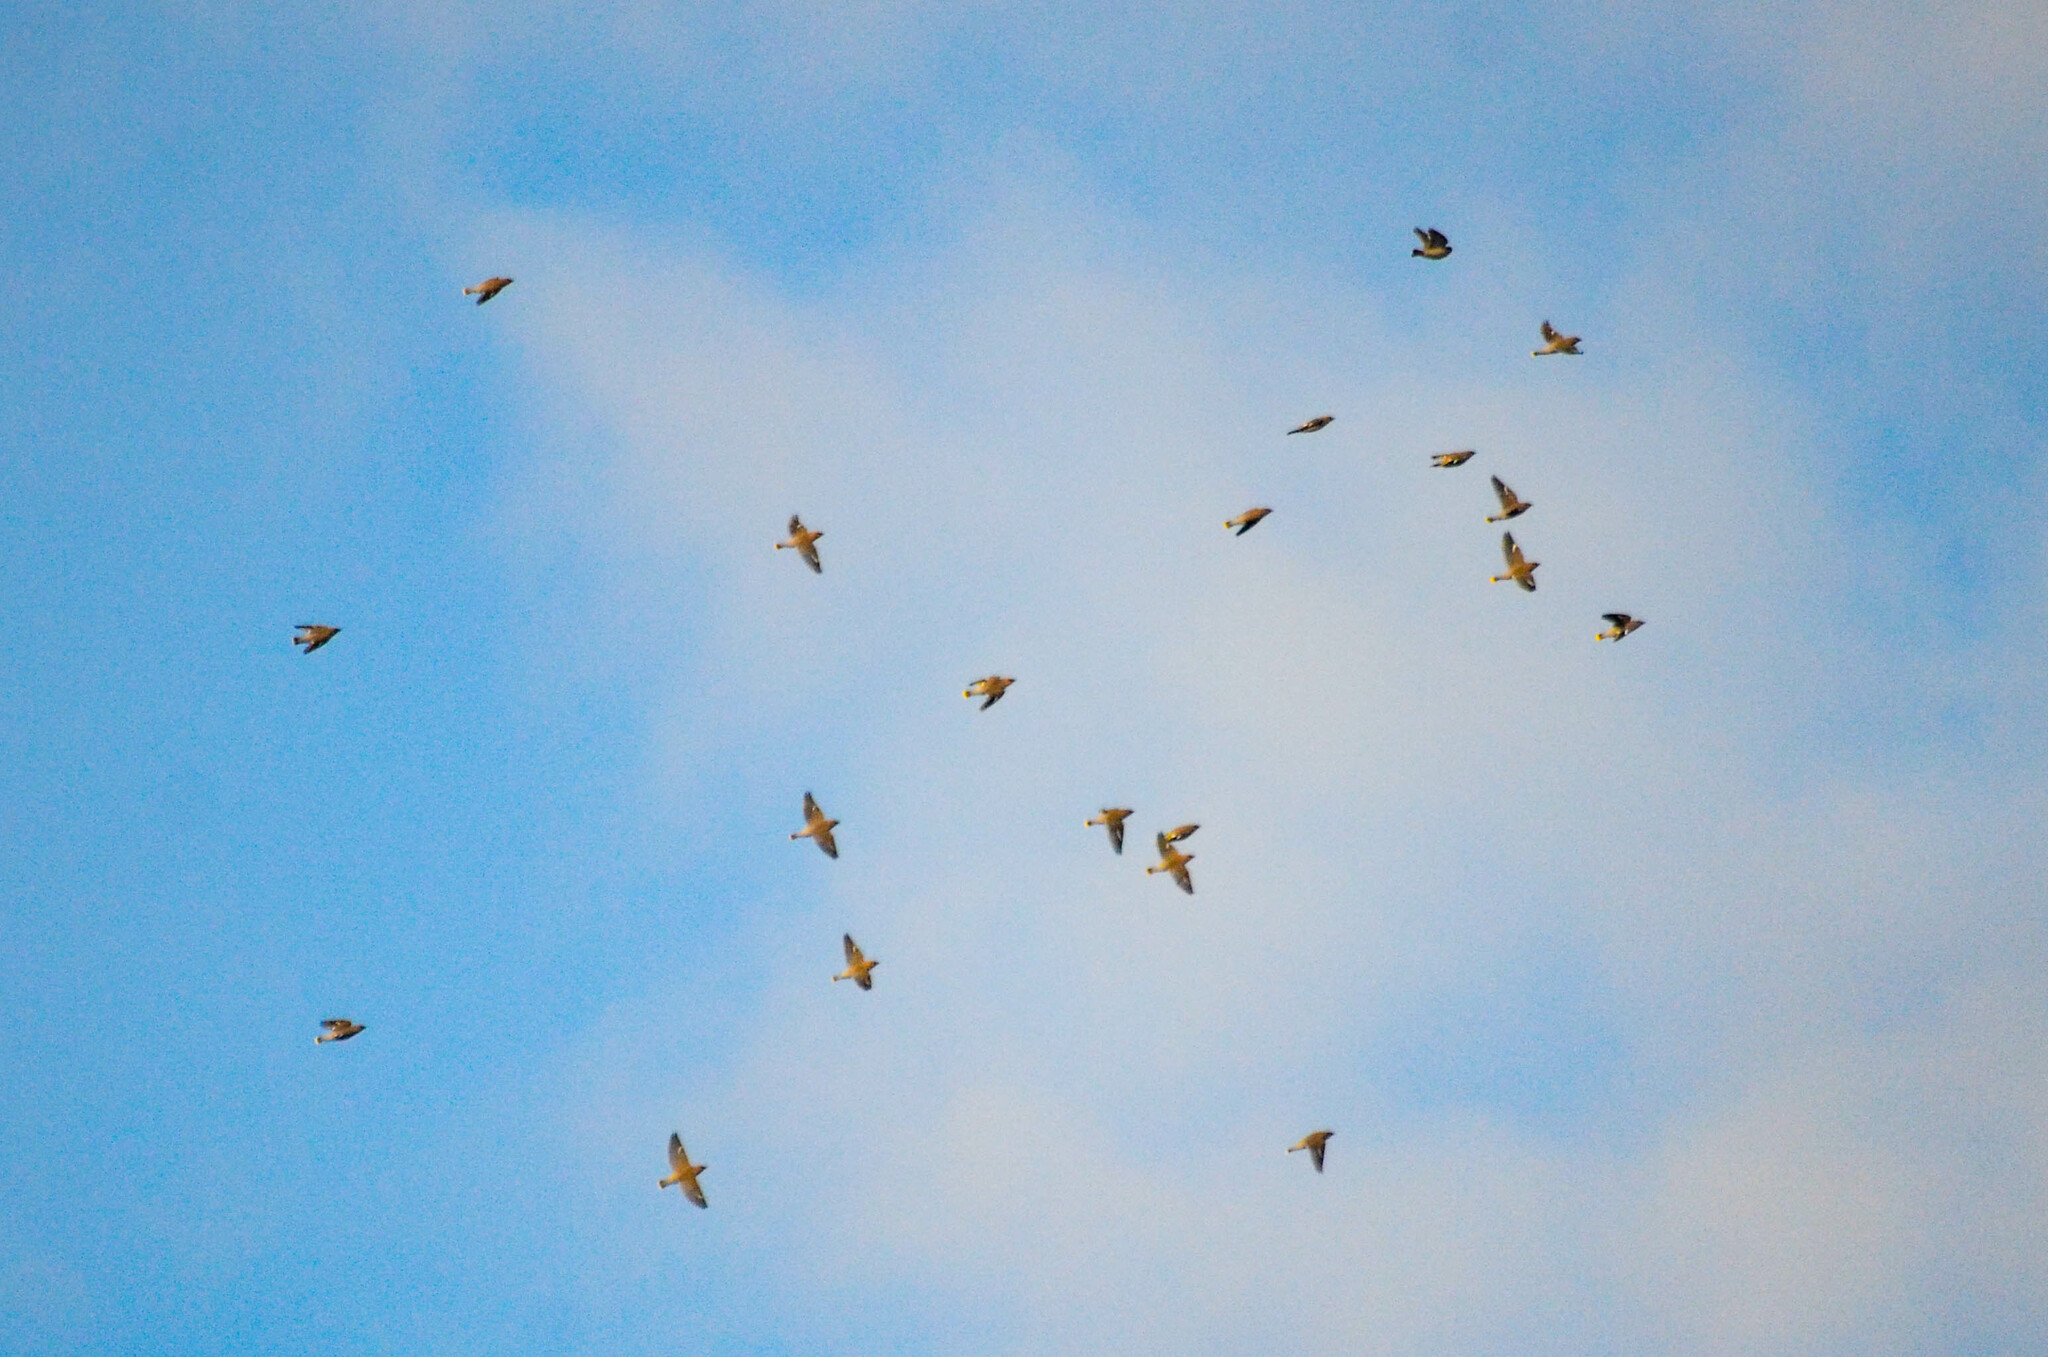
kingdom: Animalia
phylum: Chordata
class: Aves
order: Passeriformes
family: Bombycillidae
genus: Bombycilla
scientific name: Bombycilla garrulus
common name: Bohemian waxwing
